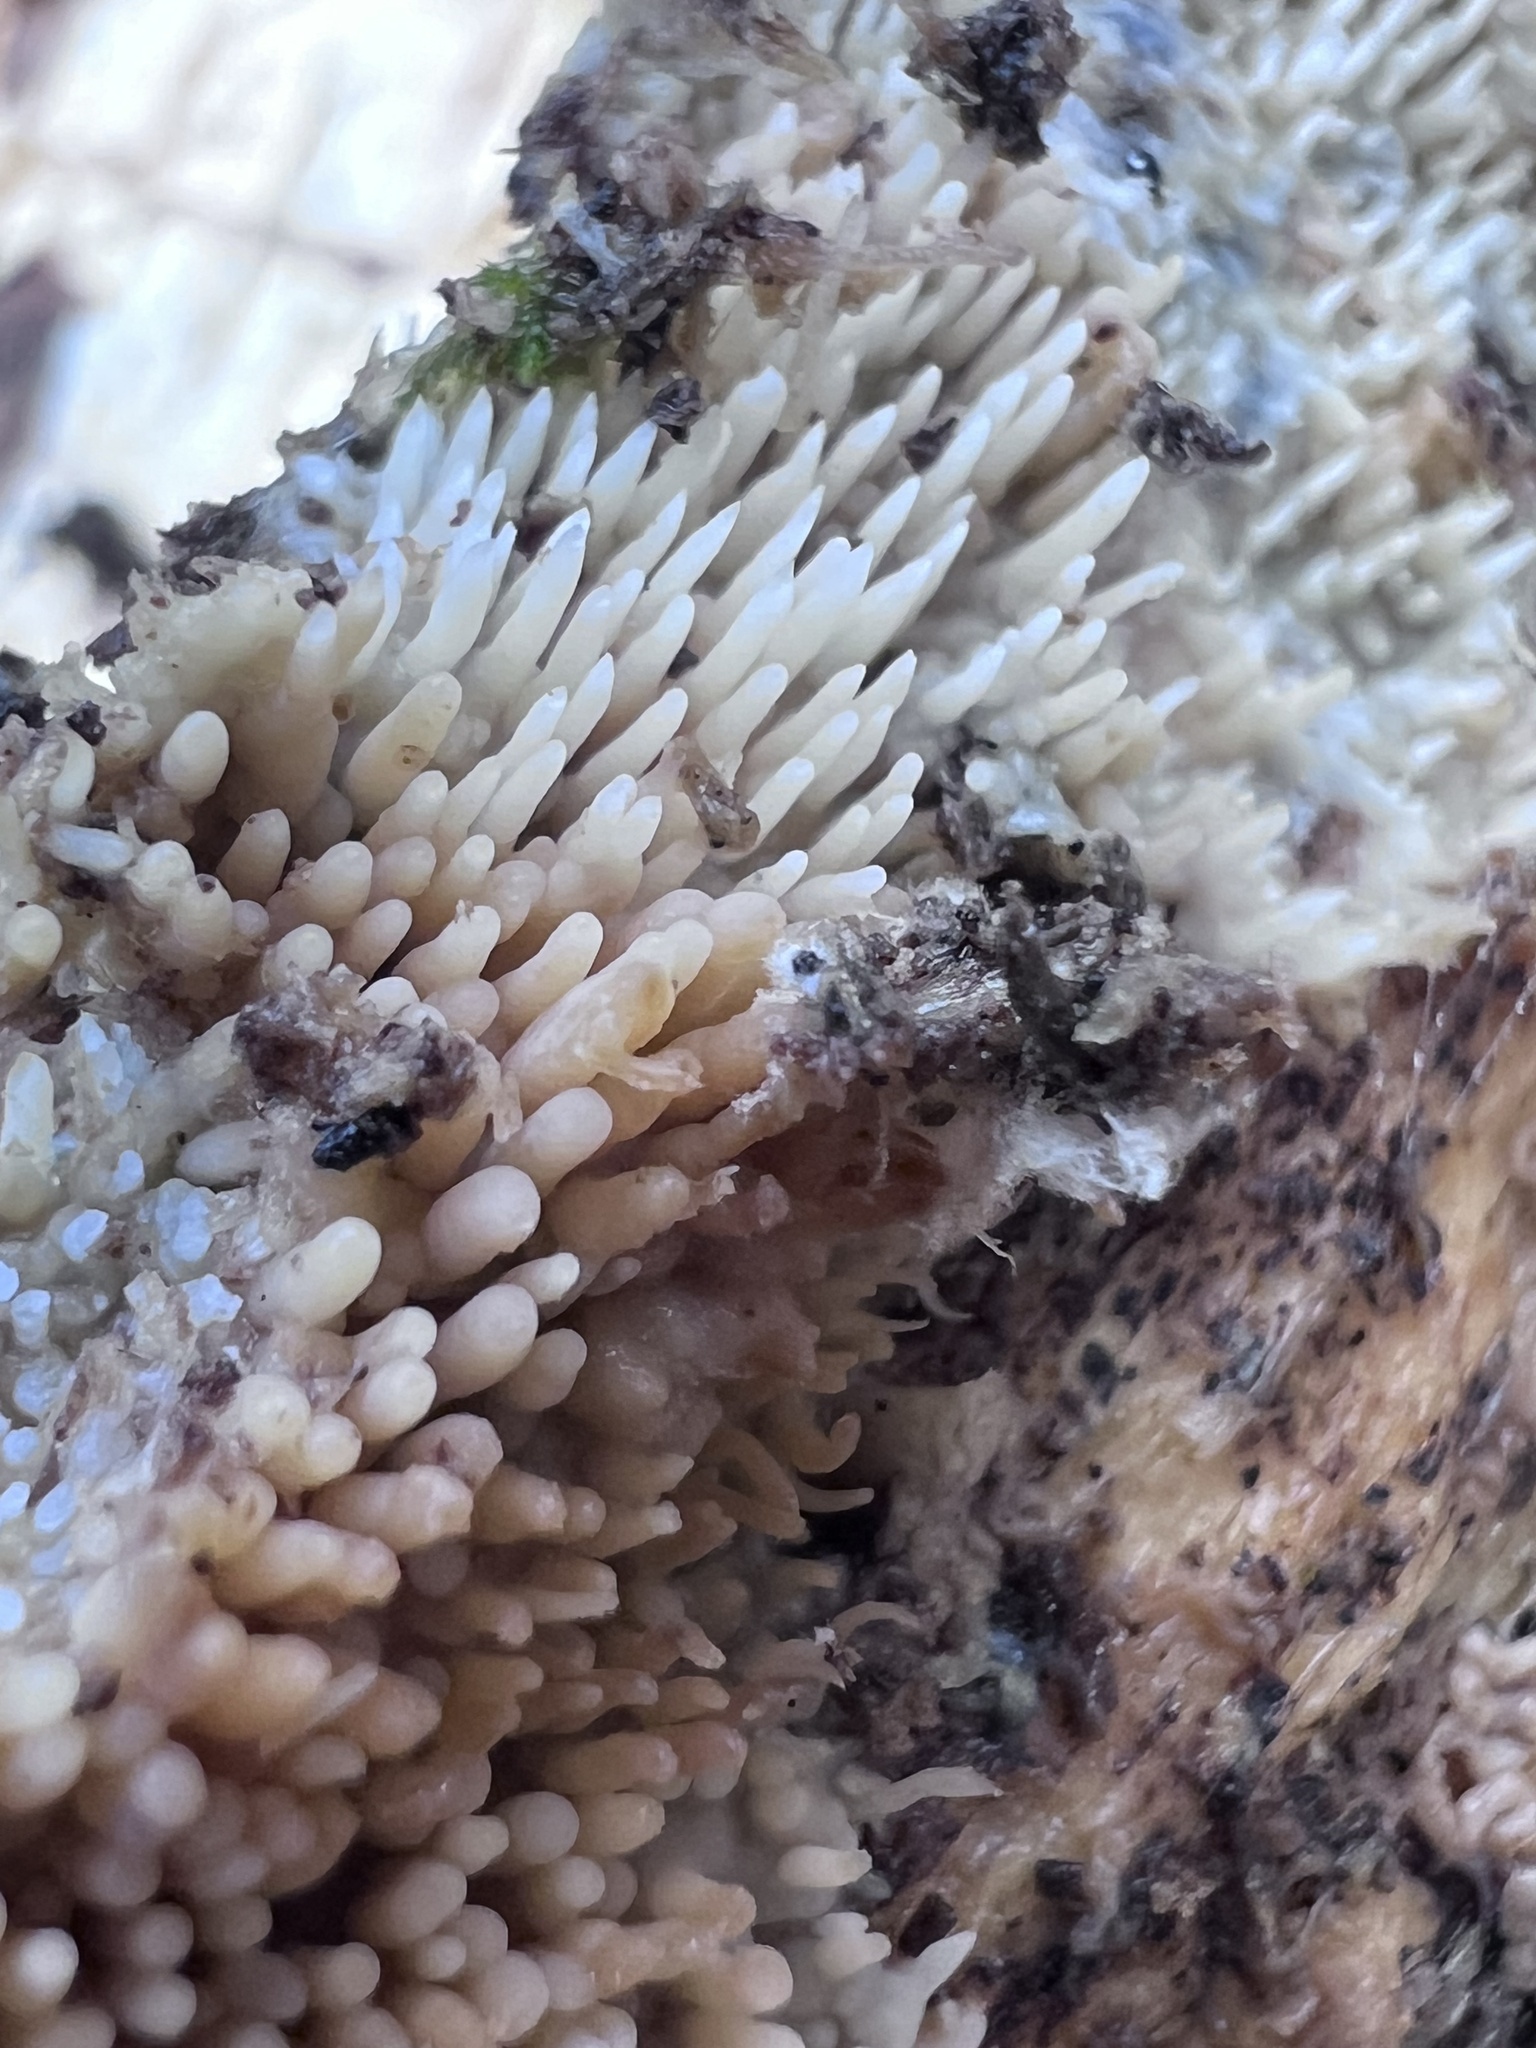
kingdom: Fungi
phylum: Basidiomycota
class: Agaricomycetes
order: Agaricales
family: Radulomycetaceae
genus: Radulomyces
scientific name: Radulomyces copelandii
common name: Asian beauty
